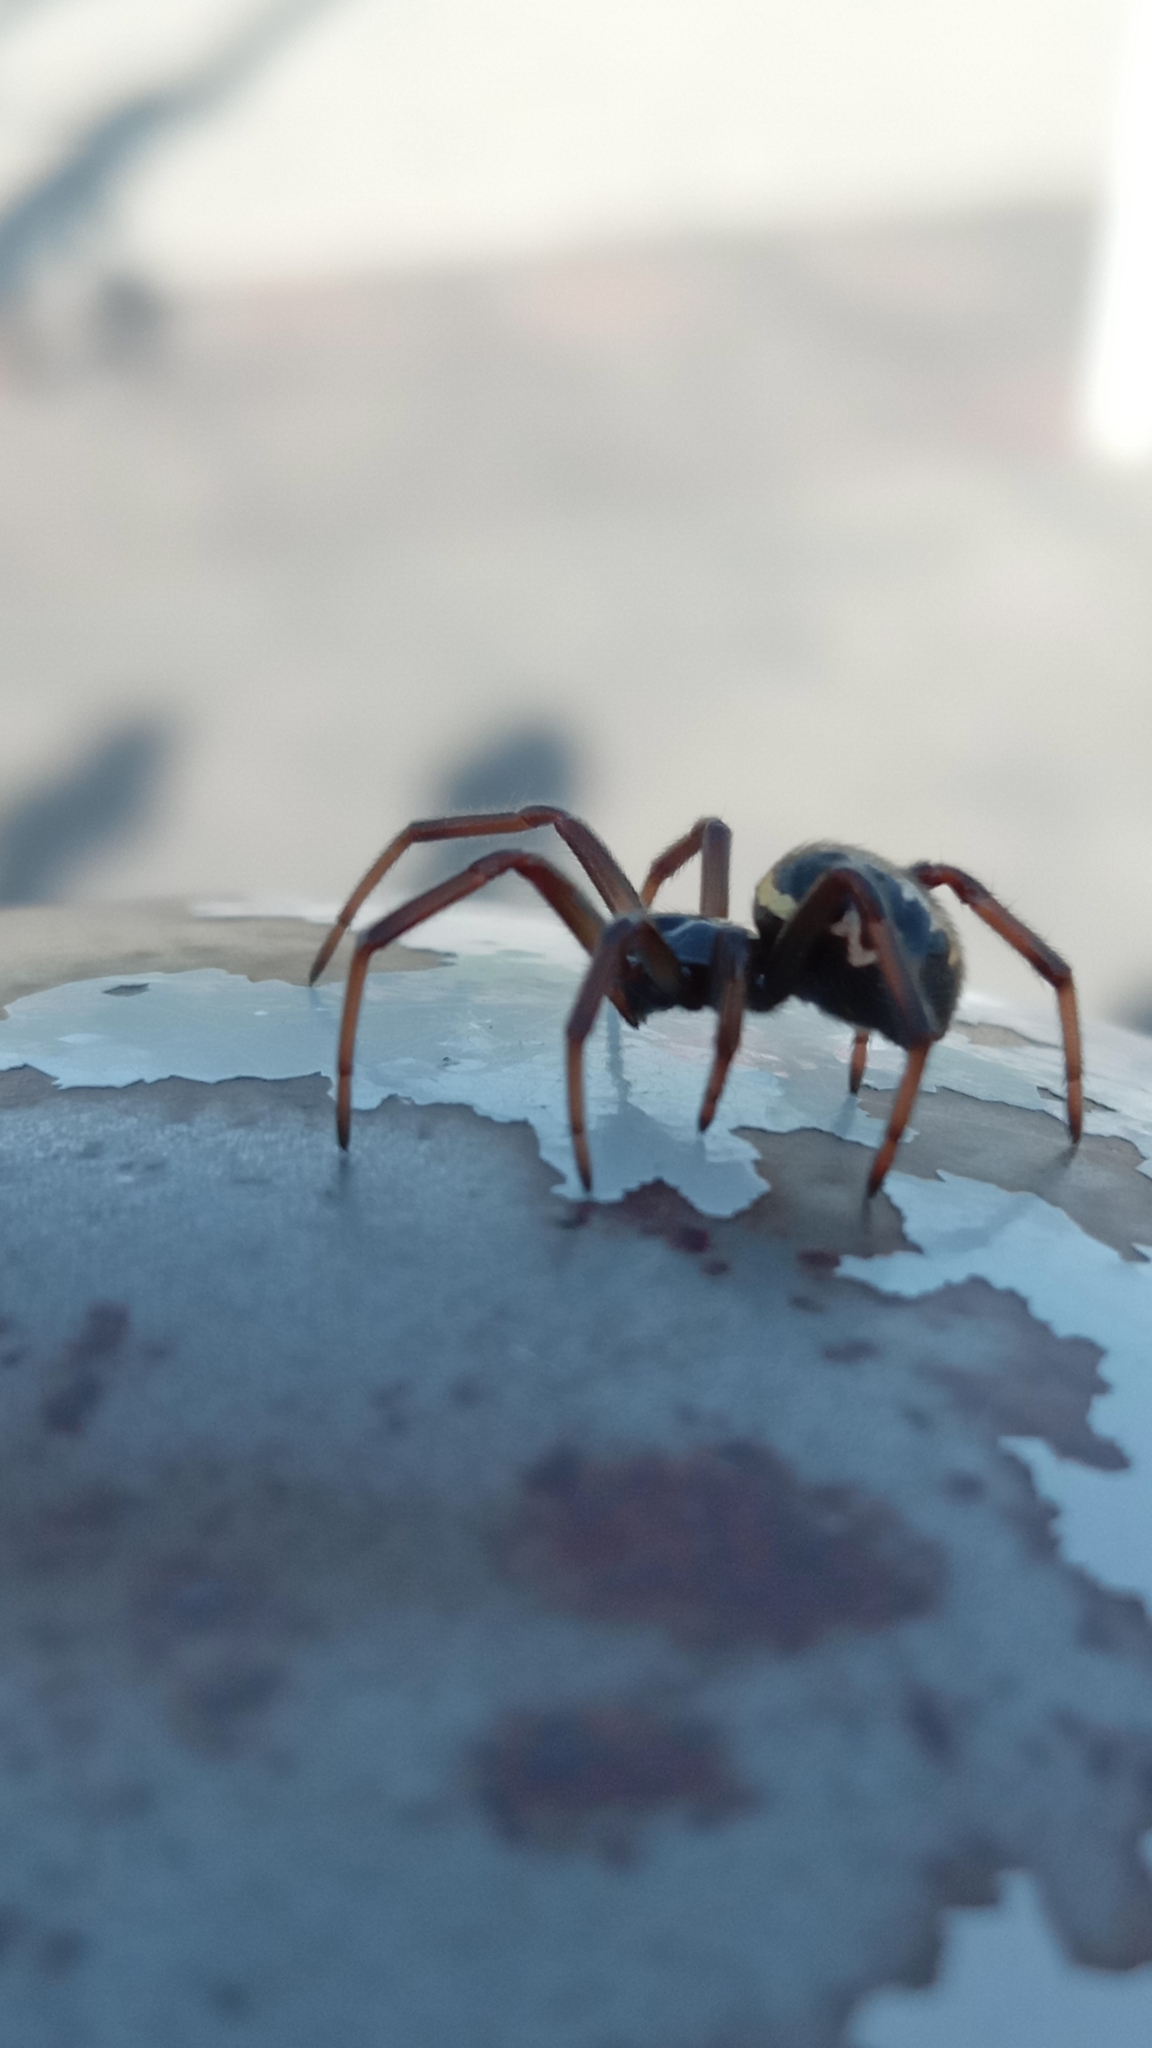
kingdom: Animalia
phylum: Arthropoda
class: Arachnida
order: Araneae
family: Theridiidae
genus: Steatoda
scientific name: Steatoda paykulliana
